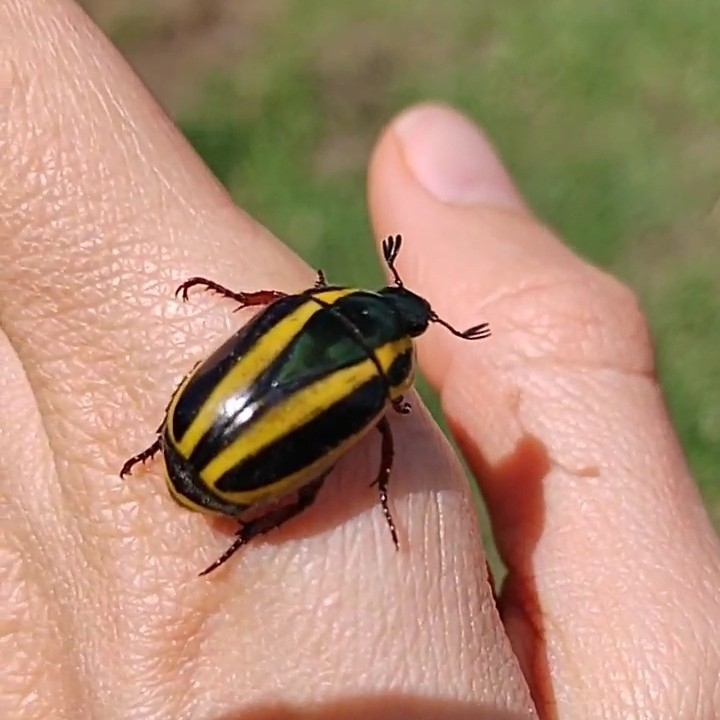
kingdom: Animalia
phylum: Arthropoda
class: Insecta
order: Coleoptera
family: Scarabaeidae
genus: Macraspis
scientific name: Macraspis jamesi
